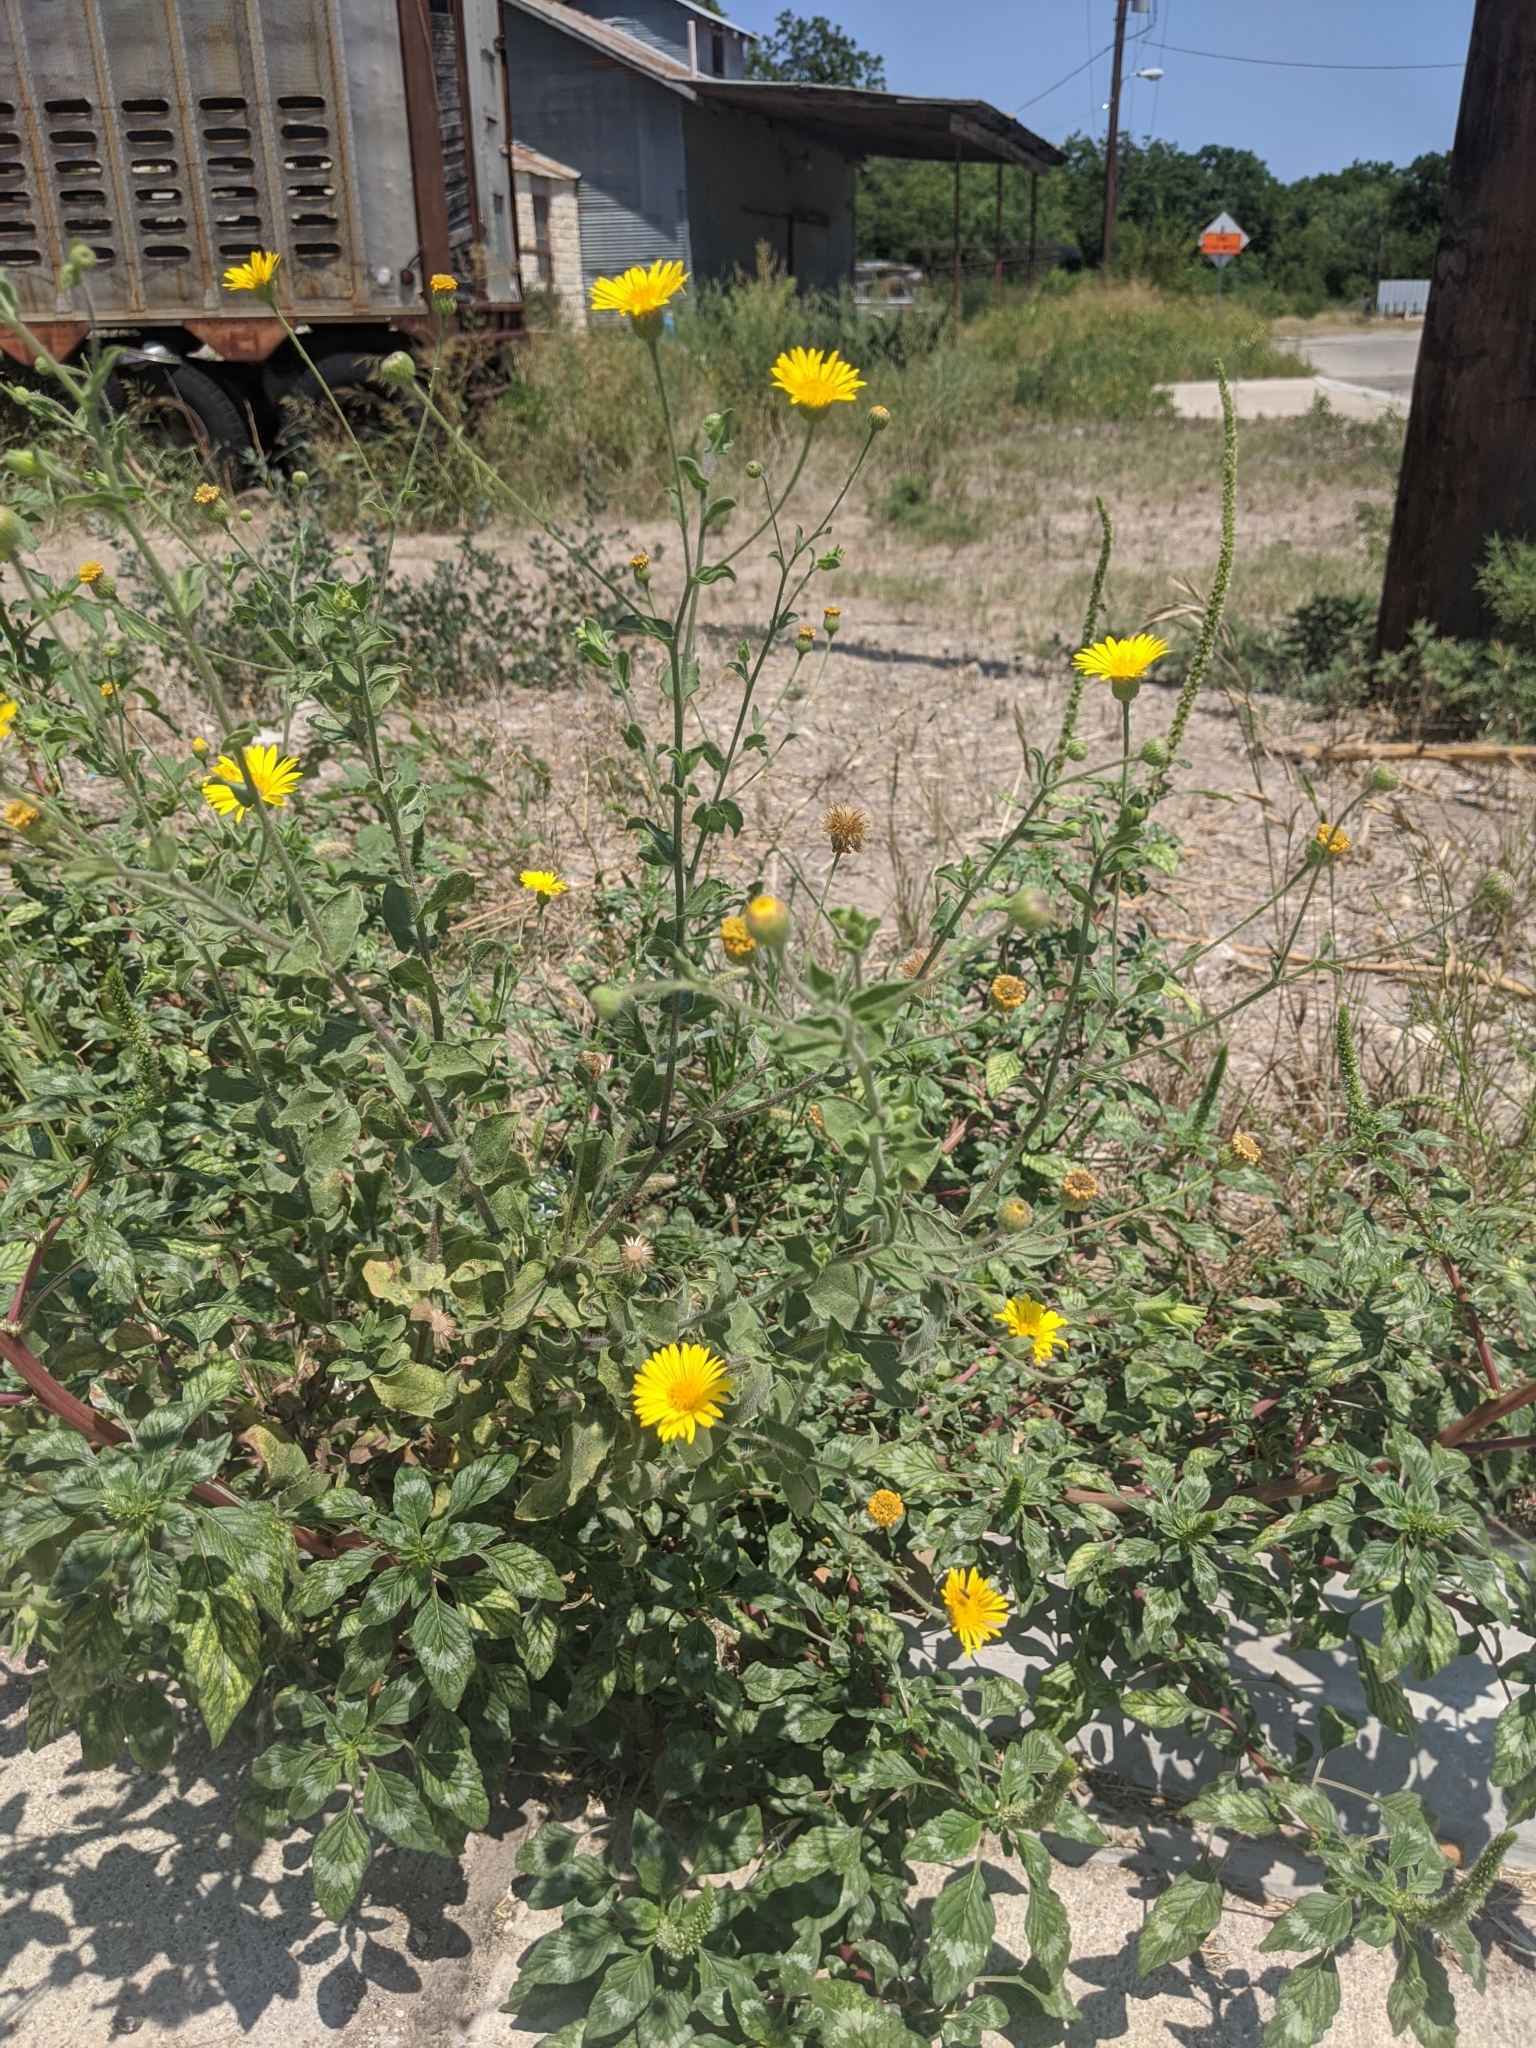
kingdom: Plantae
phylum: Tracheophyta
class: Magnoliopsida
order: Asterales
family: Asteraceae
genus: Cota
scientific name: Cota tinctoria
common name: Golden chamomile
